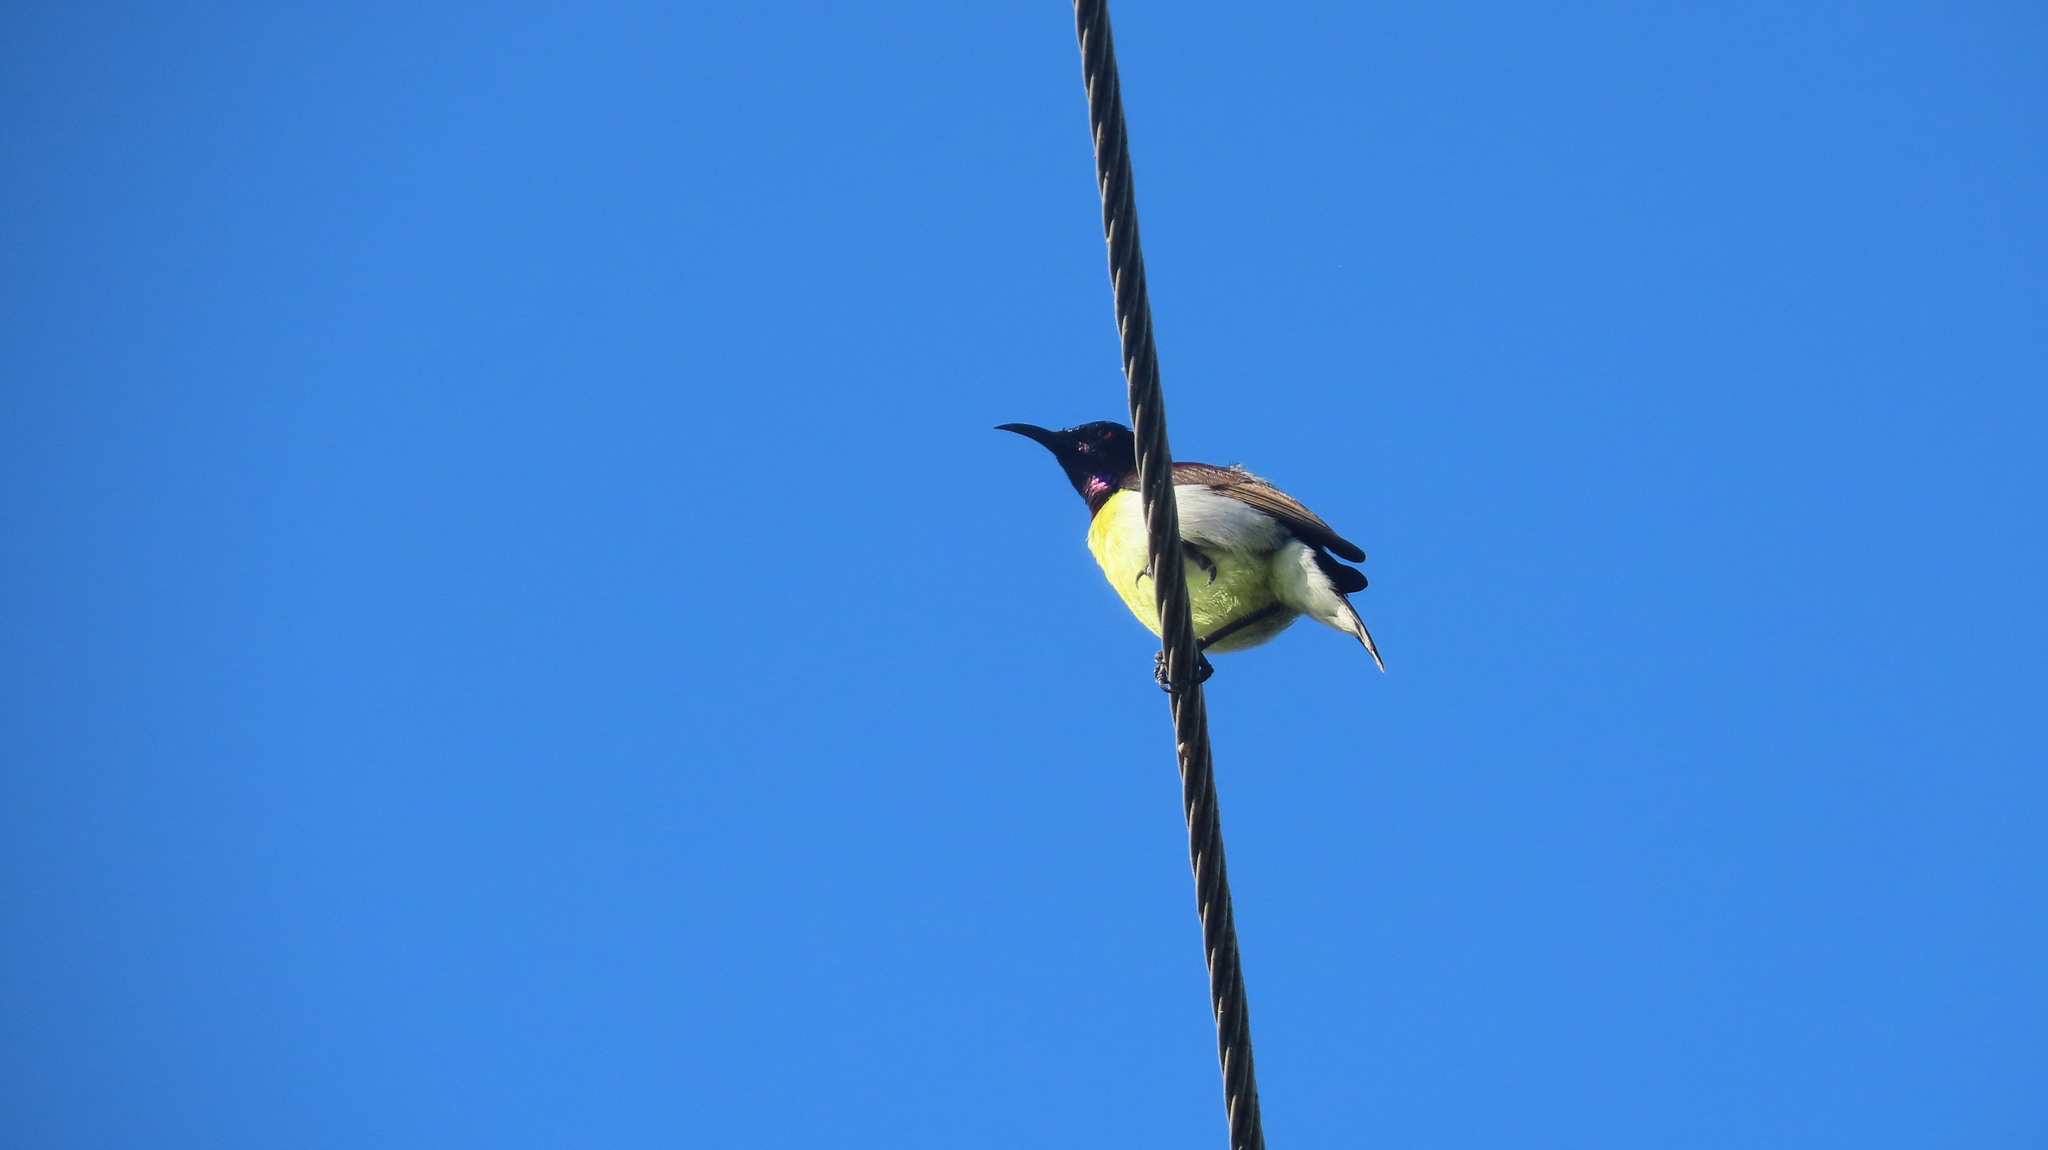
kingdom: Animalia
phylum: Chordata
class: Aves
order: Passeriformes
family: Nectariniidae
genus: Leptocoma
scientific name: Leptocoma zeylonica
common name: Purple-rumped sunbird
